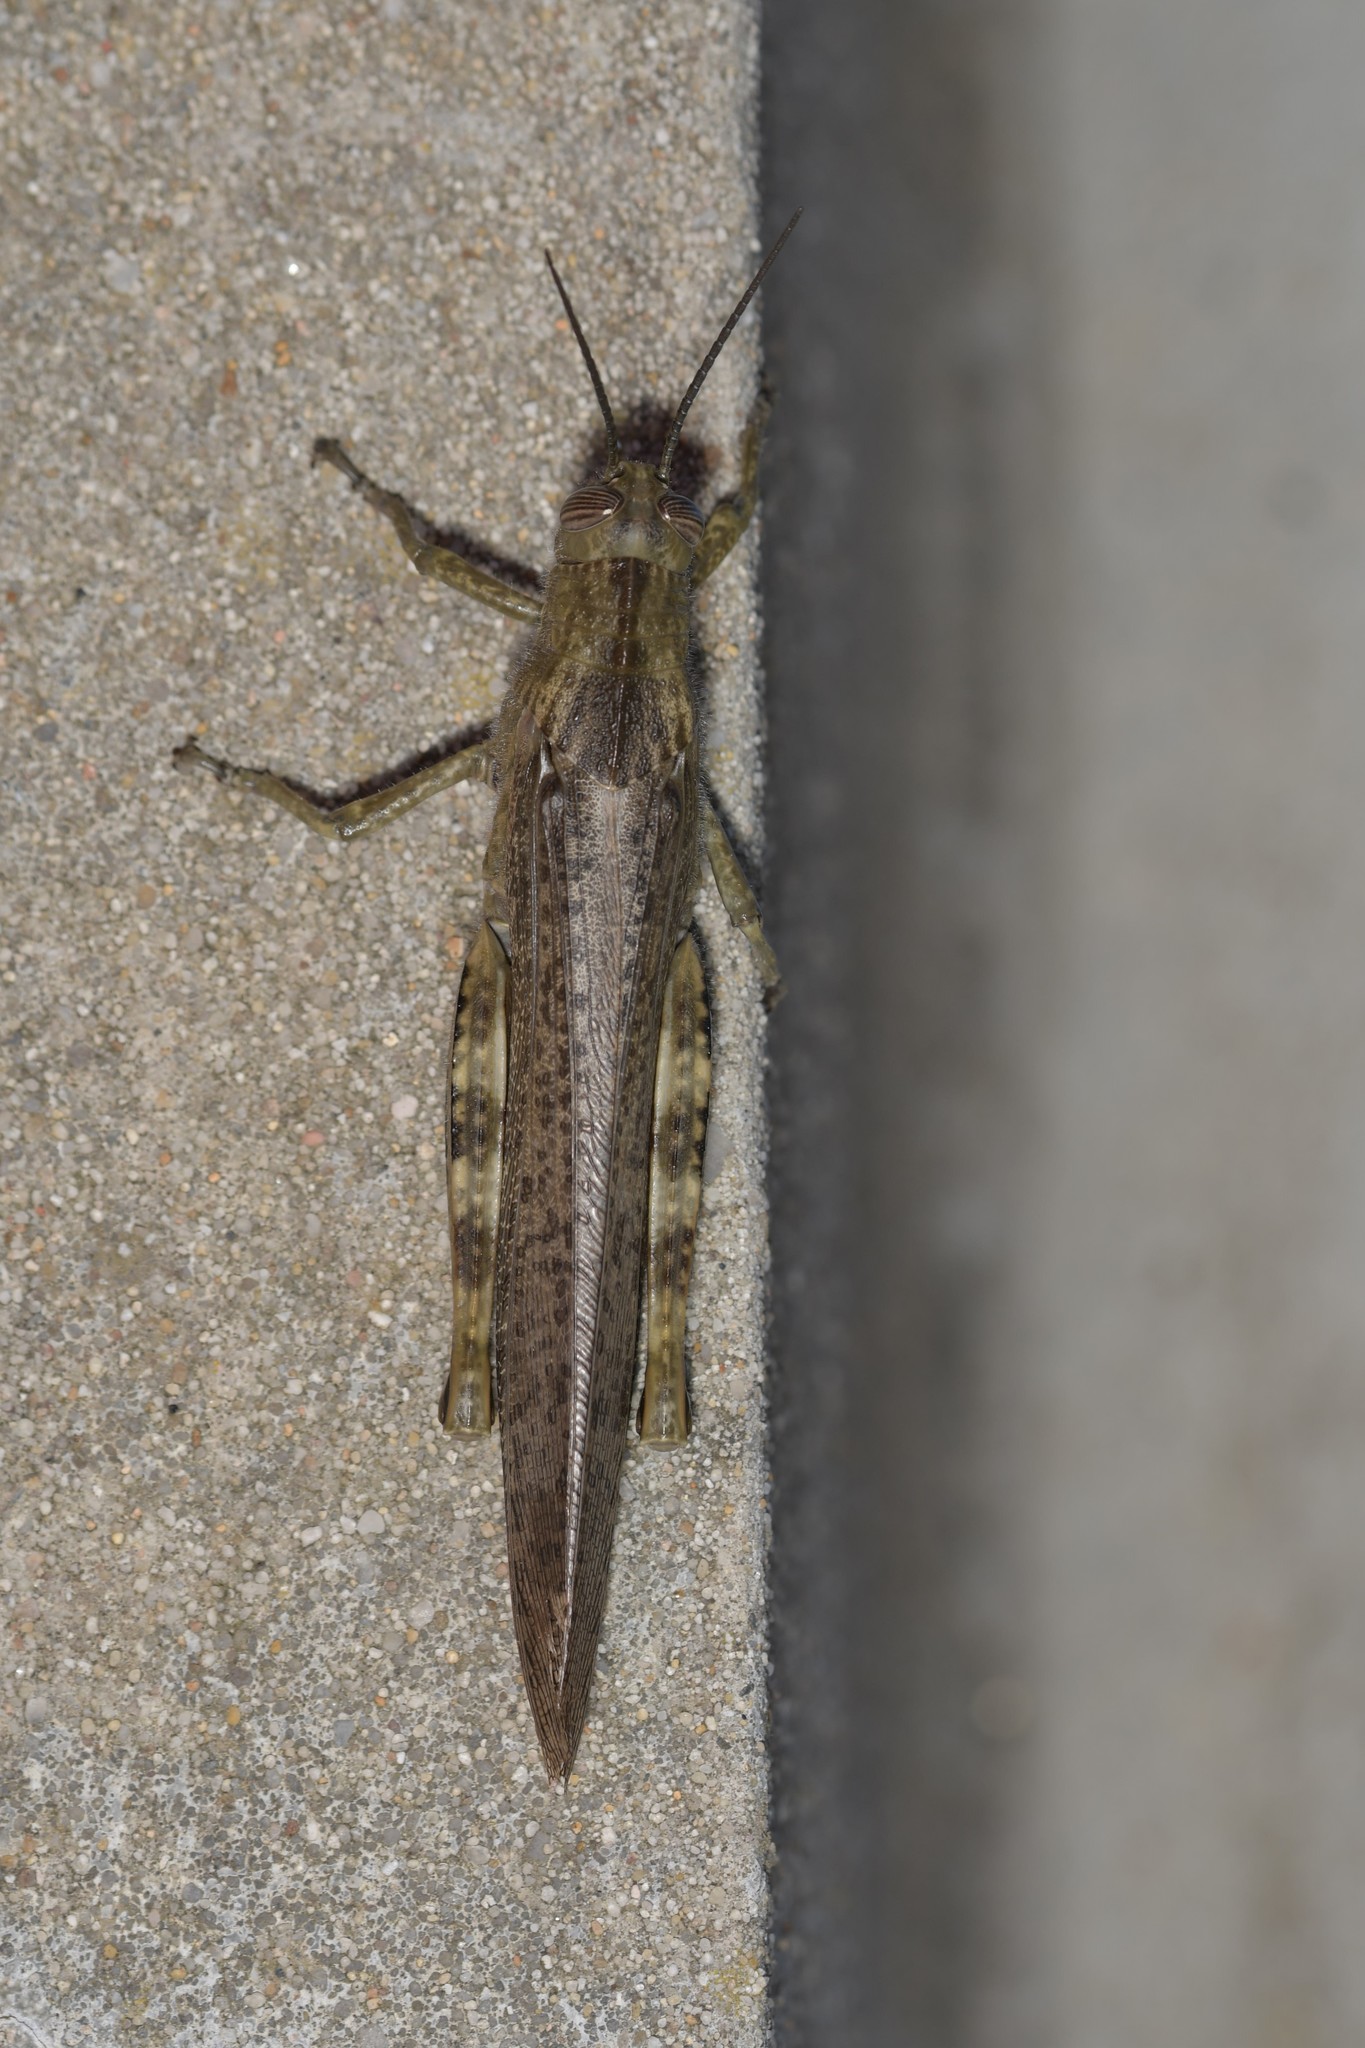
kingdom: Animalia
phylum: Arthropoda
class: Insecta
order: Orthoptera
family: Acrididae
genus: Anacridium
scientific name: Anacridium aegyptium
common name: Egyptian grasshopper
